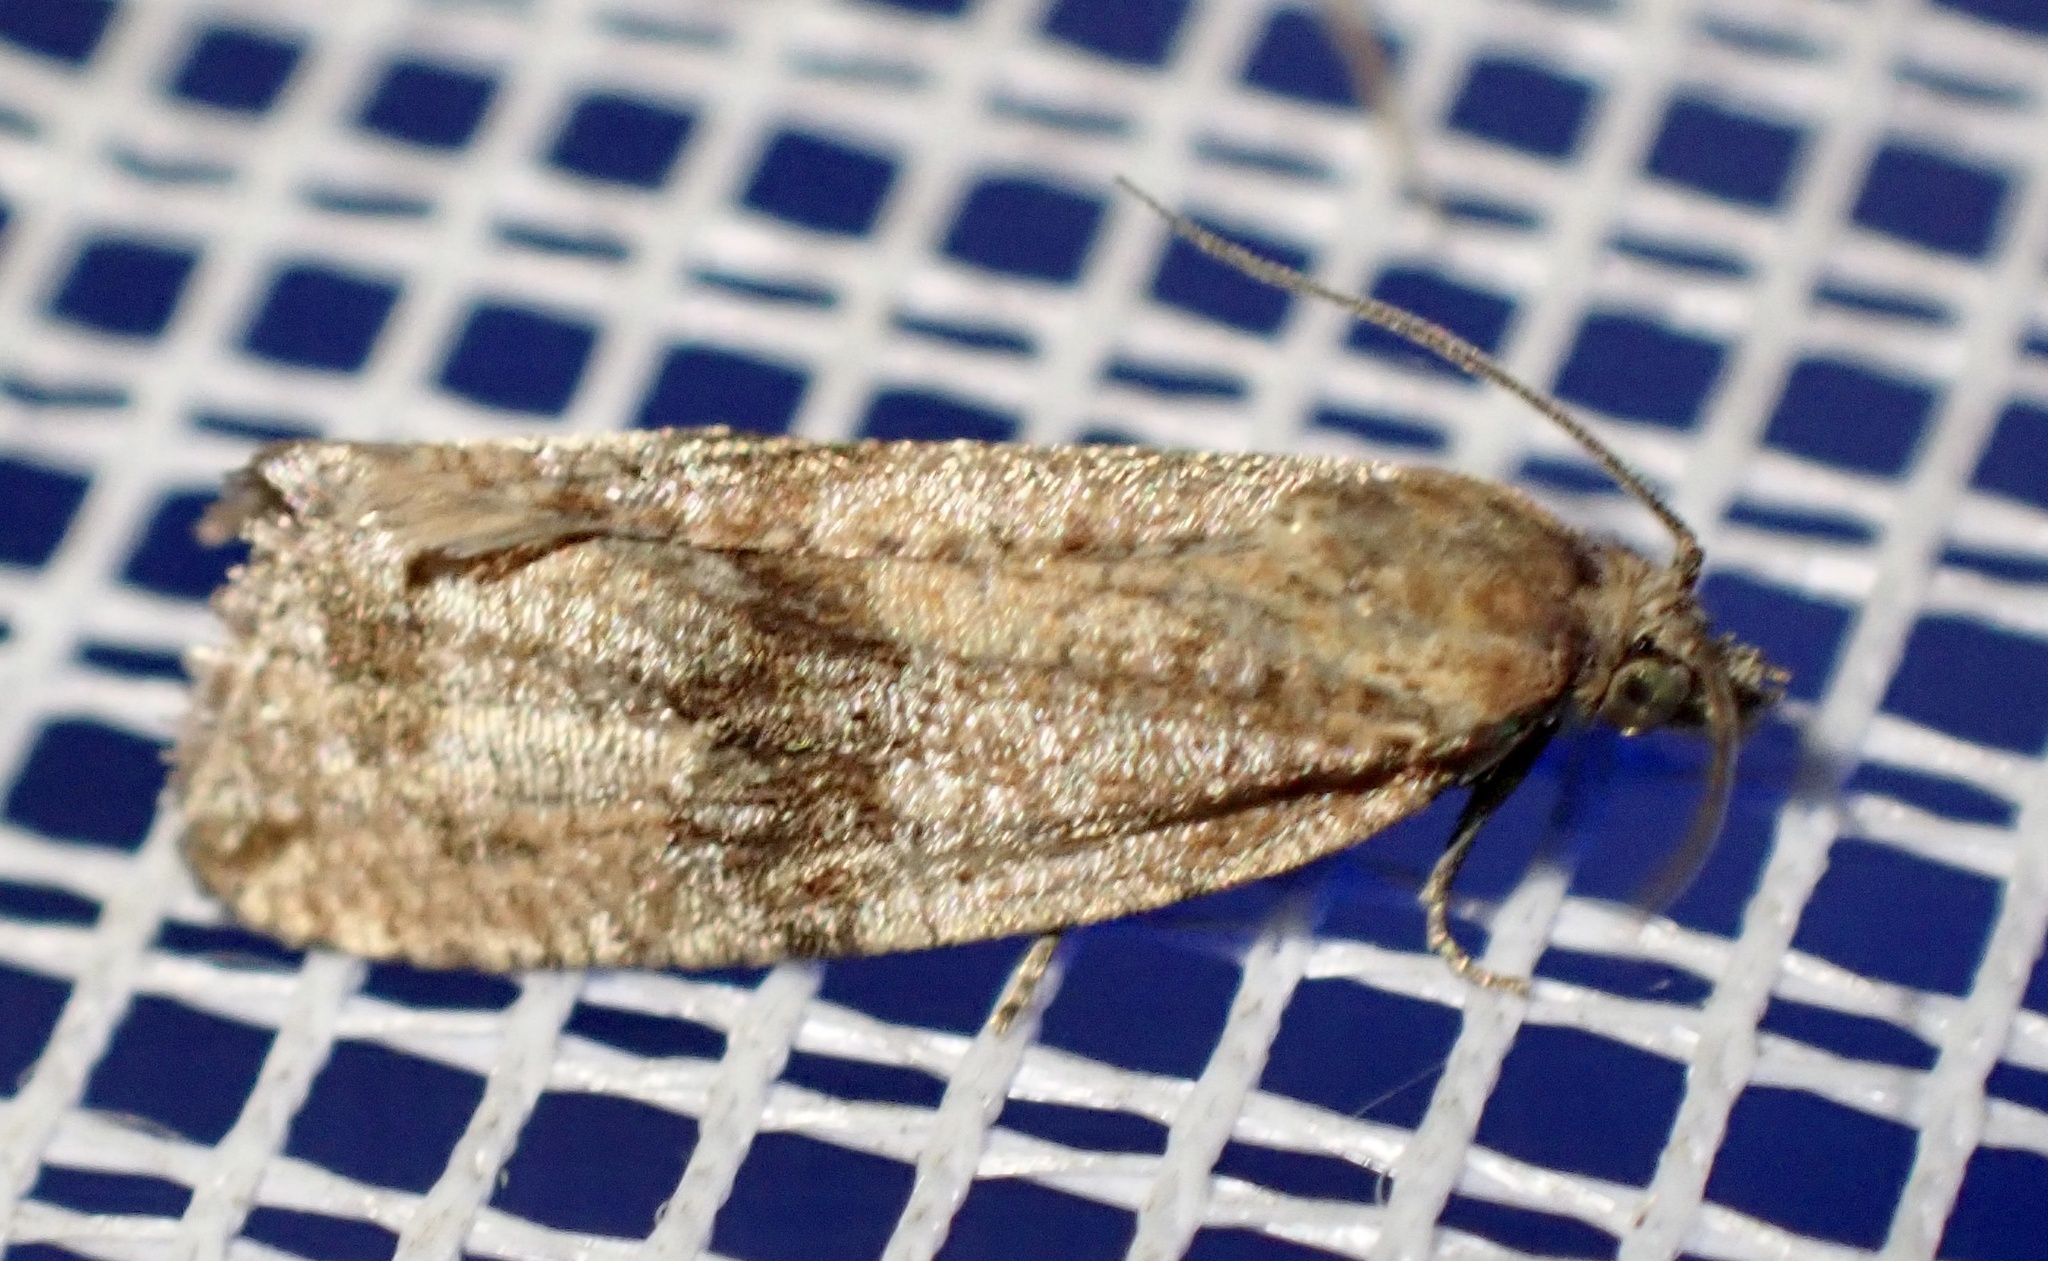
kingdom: Animalia
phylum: Arthropoda
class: Insecta
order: Lepidoptera
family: Tortricidae
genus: Celypha
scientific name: Celypha striana
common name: Barred marble
